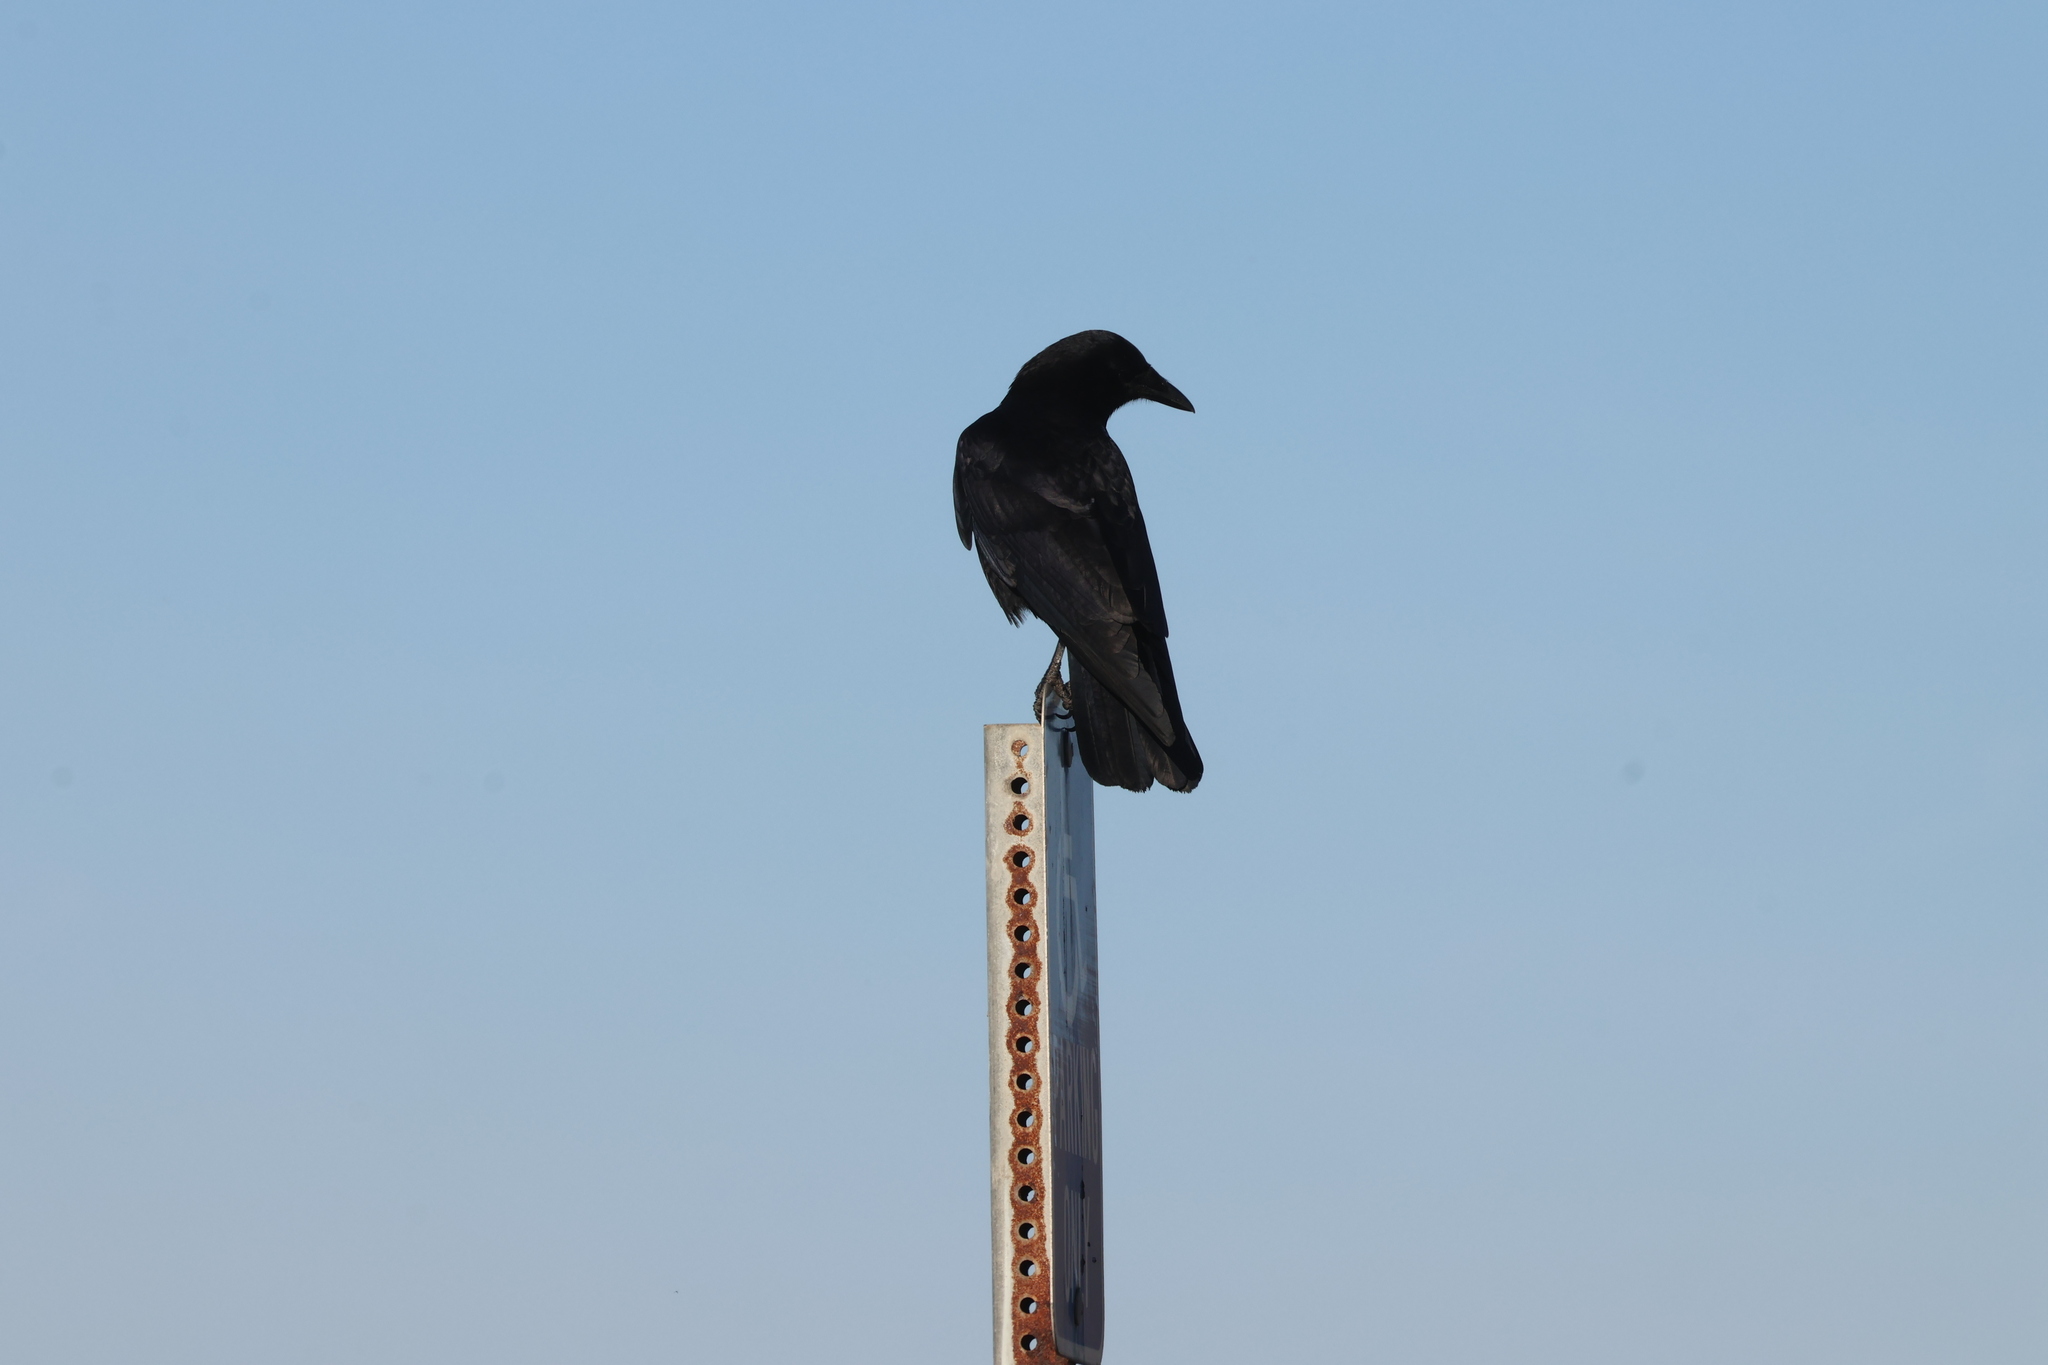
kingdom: Animalia
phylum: Chordata
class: Aves
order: Passeriformes
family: Corvidae
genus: Corvus
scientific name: Corvus brachyrhynchos
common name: American crow
